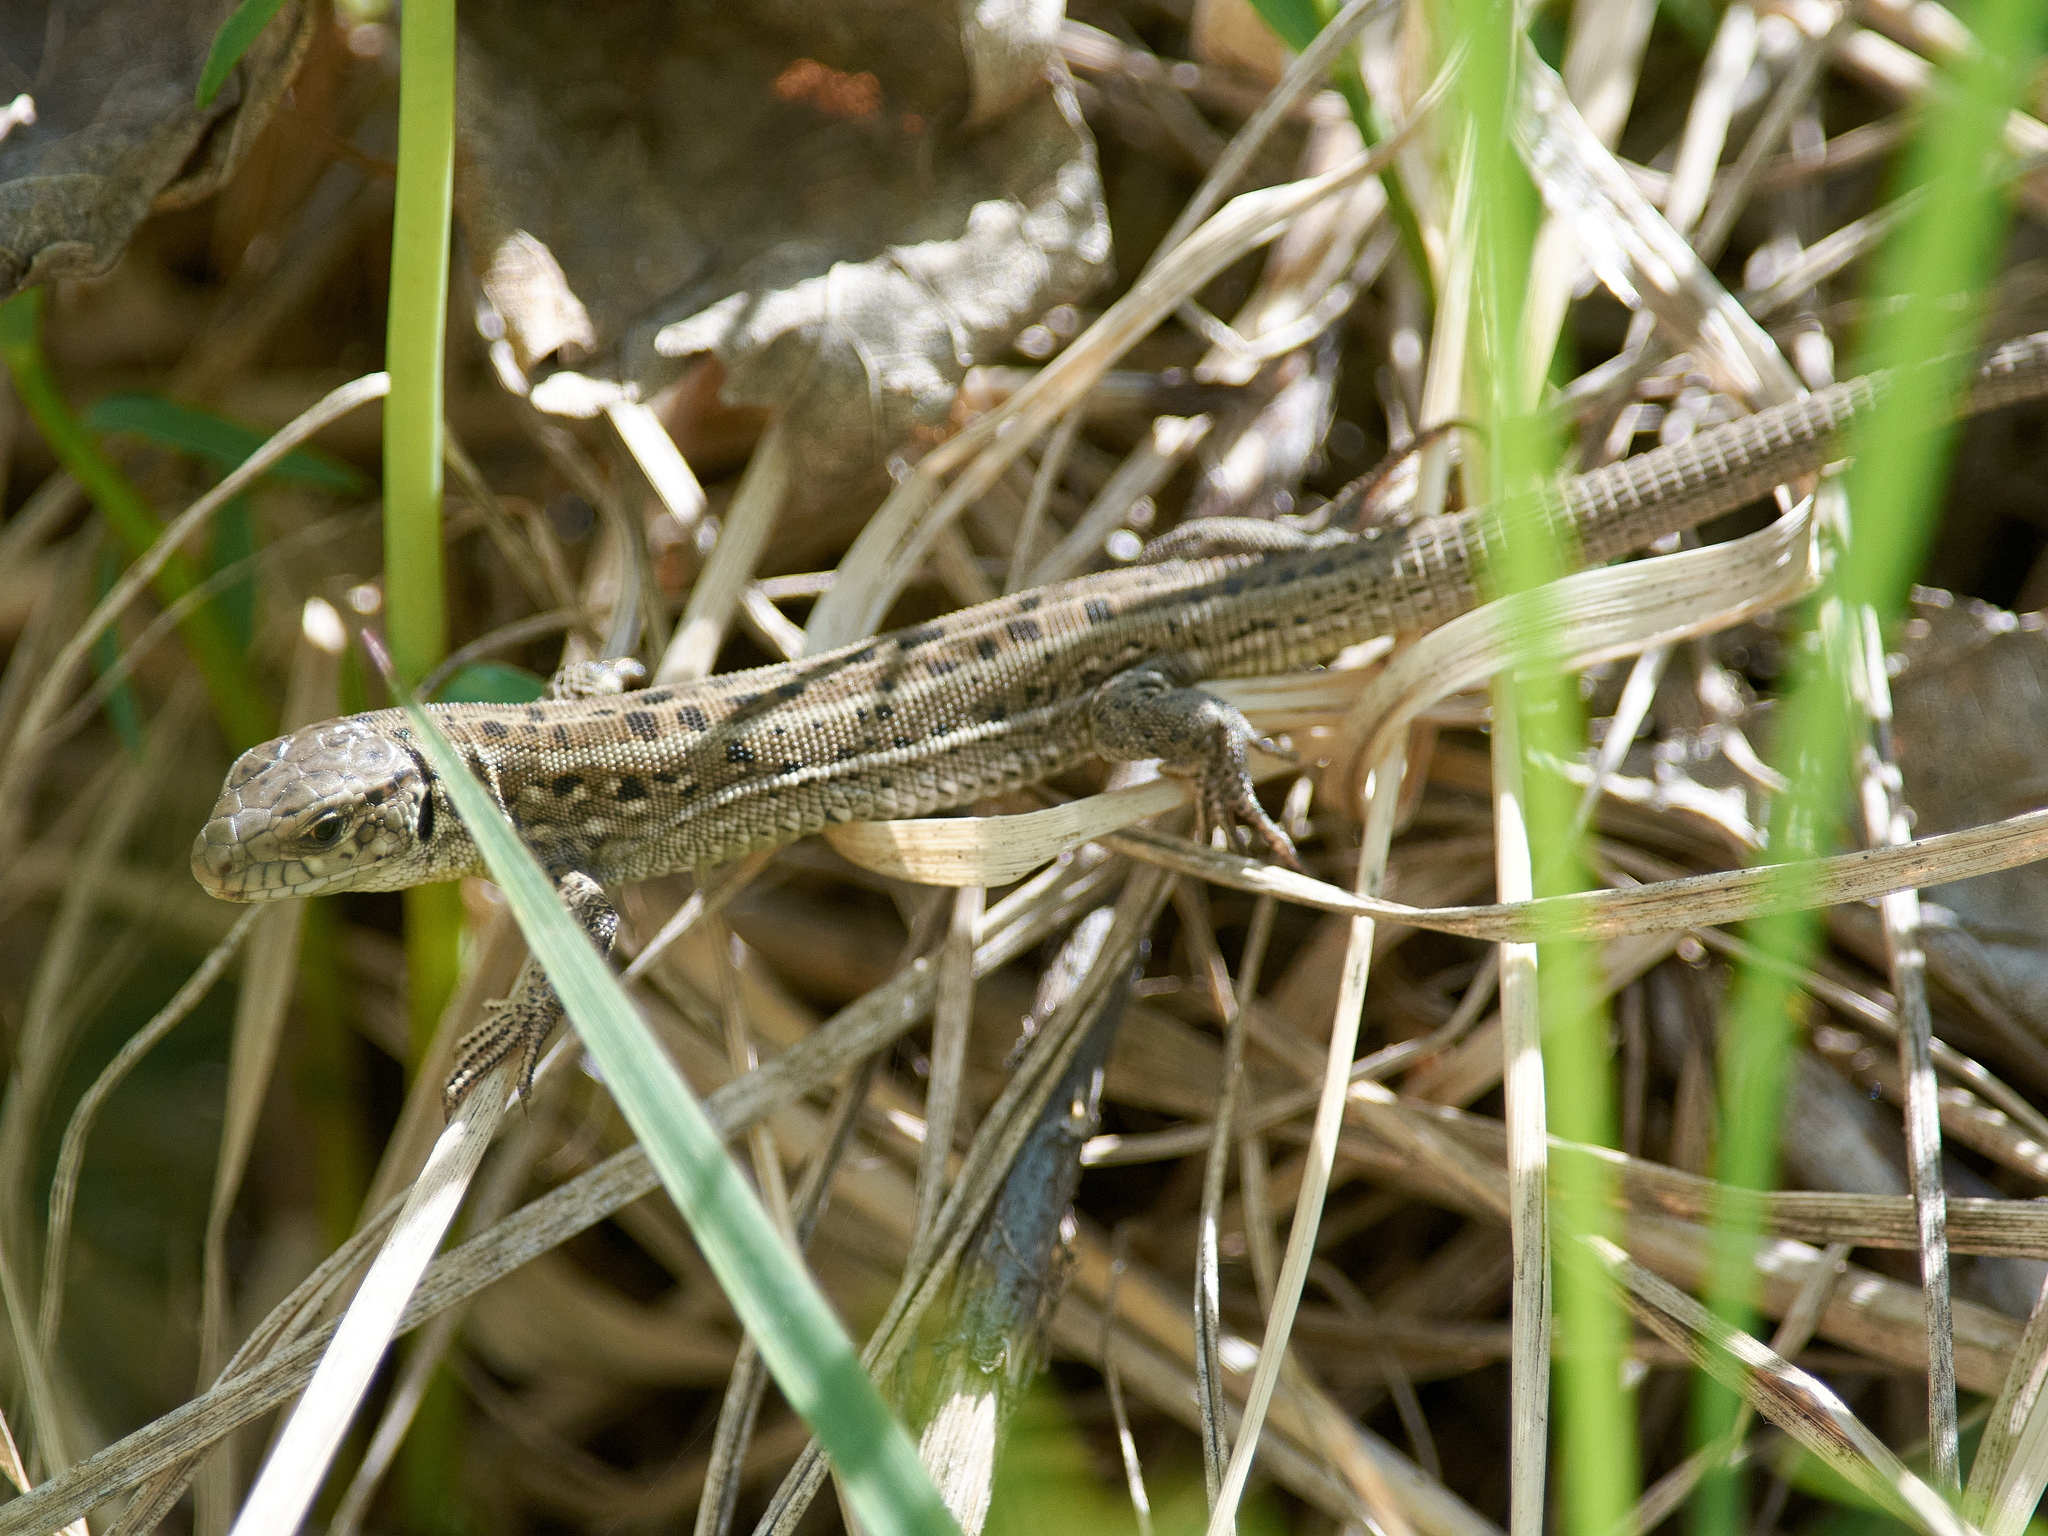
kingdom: Animalia
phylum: Chordata
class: Squamata
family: Lacertidae
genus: Lacerta
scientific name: Lacerta agilis
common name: Sand lizard
